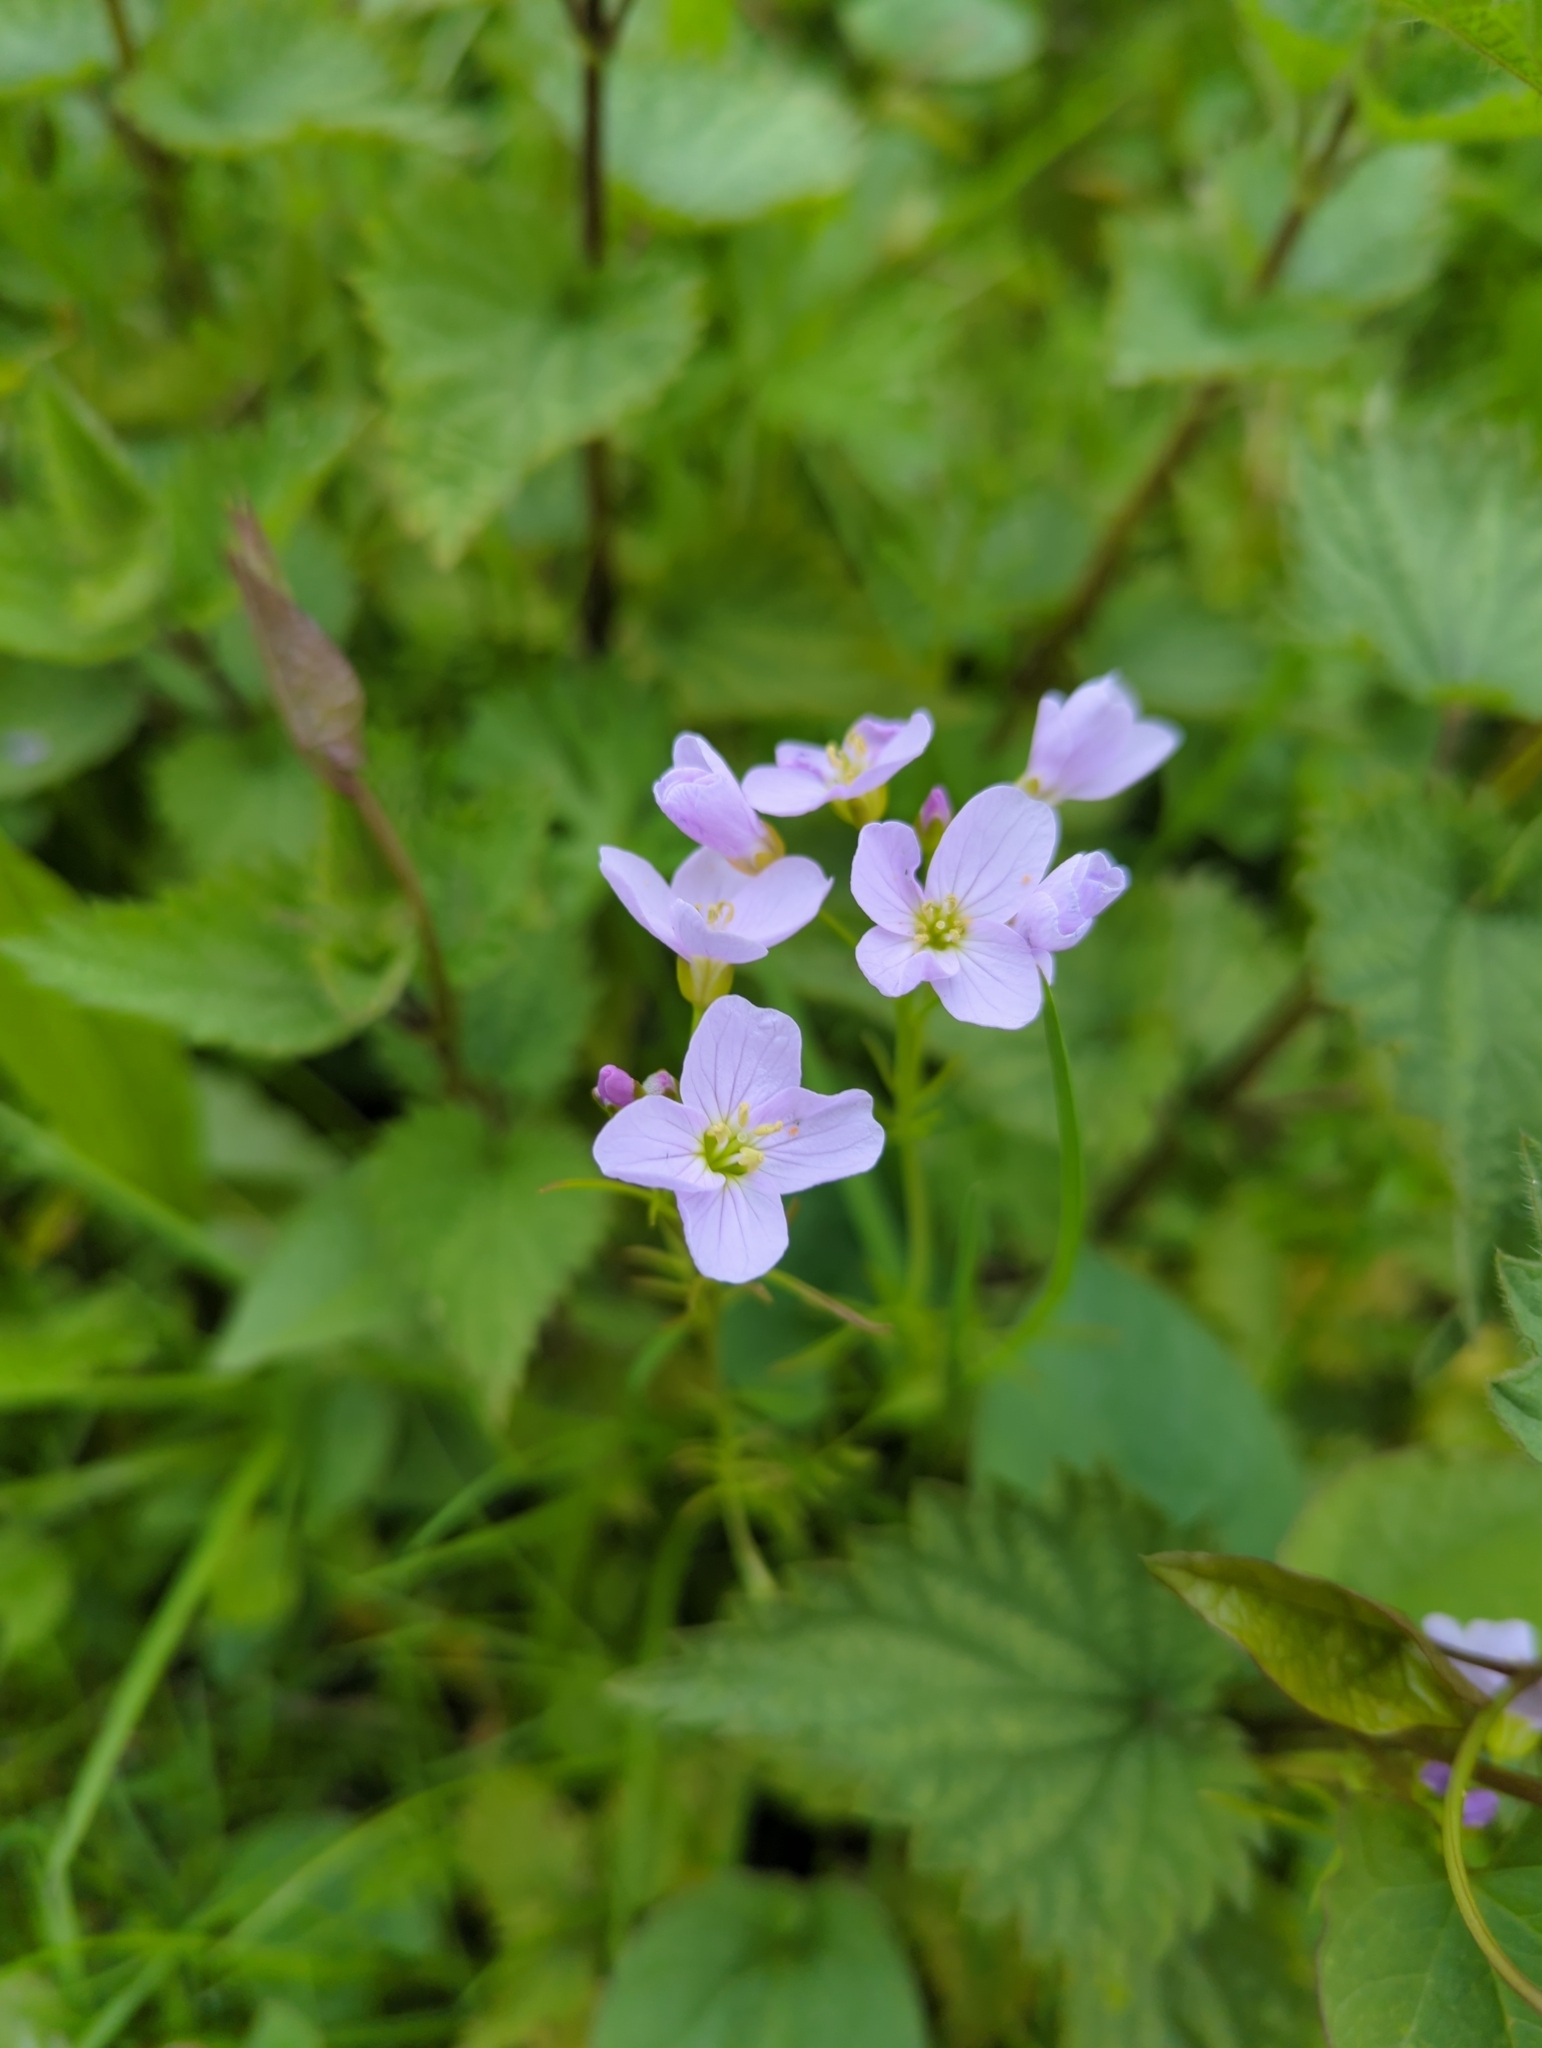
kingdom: Plantae
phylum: Tracheophyta
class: Magnoliopsida
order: Brassicales
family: Brassicaceae
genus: Cardamine
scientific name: Cardamine pratensis
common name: Cuckoo flower
